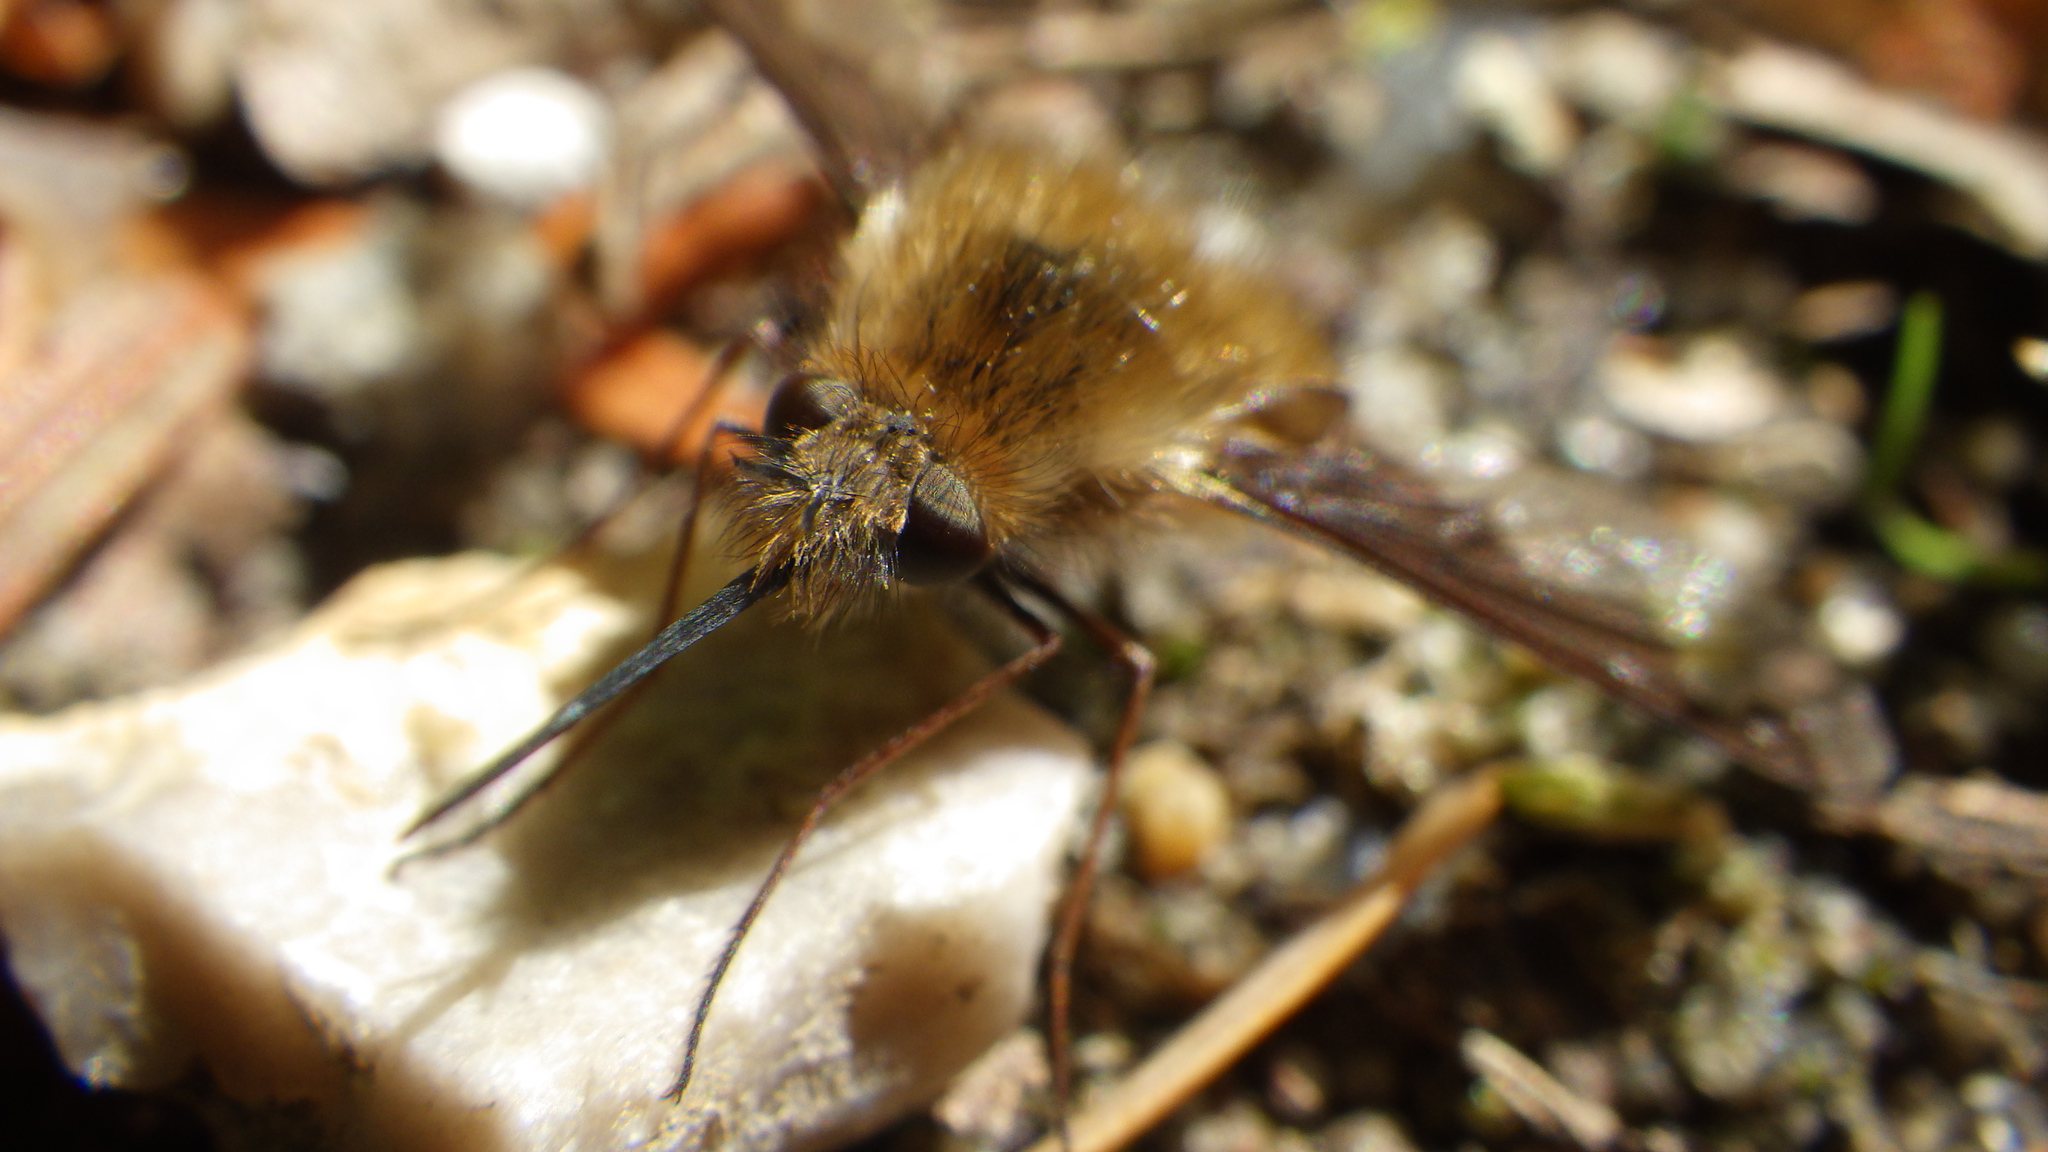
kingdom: Animalia
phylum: Arthropoda
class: Insecta
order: Diptera
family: Bombyliidae
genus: Bombylius
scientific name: Bombylius major
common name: Bee fly
